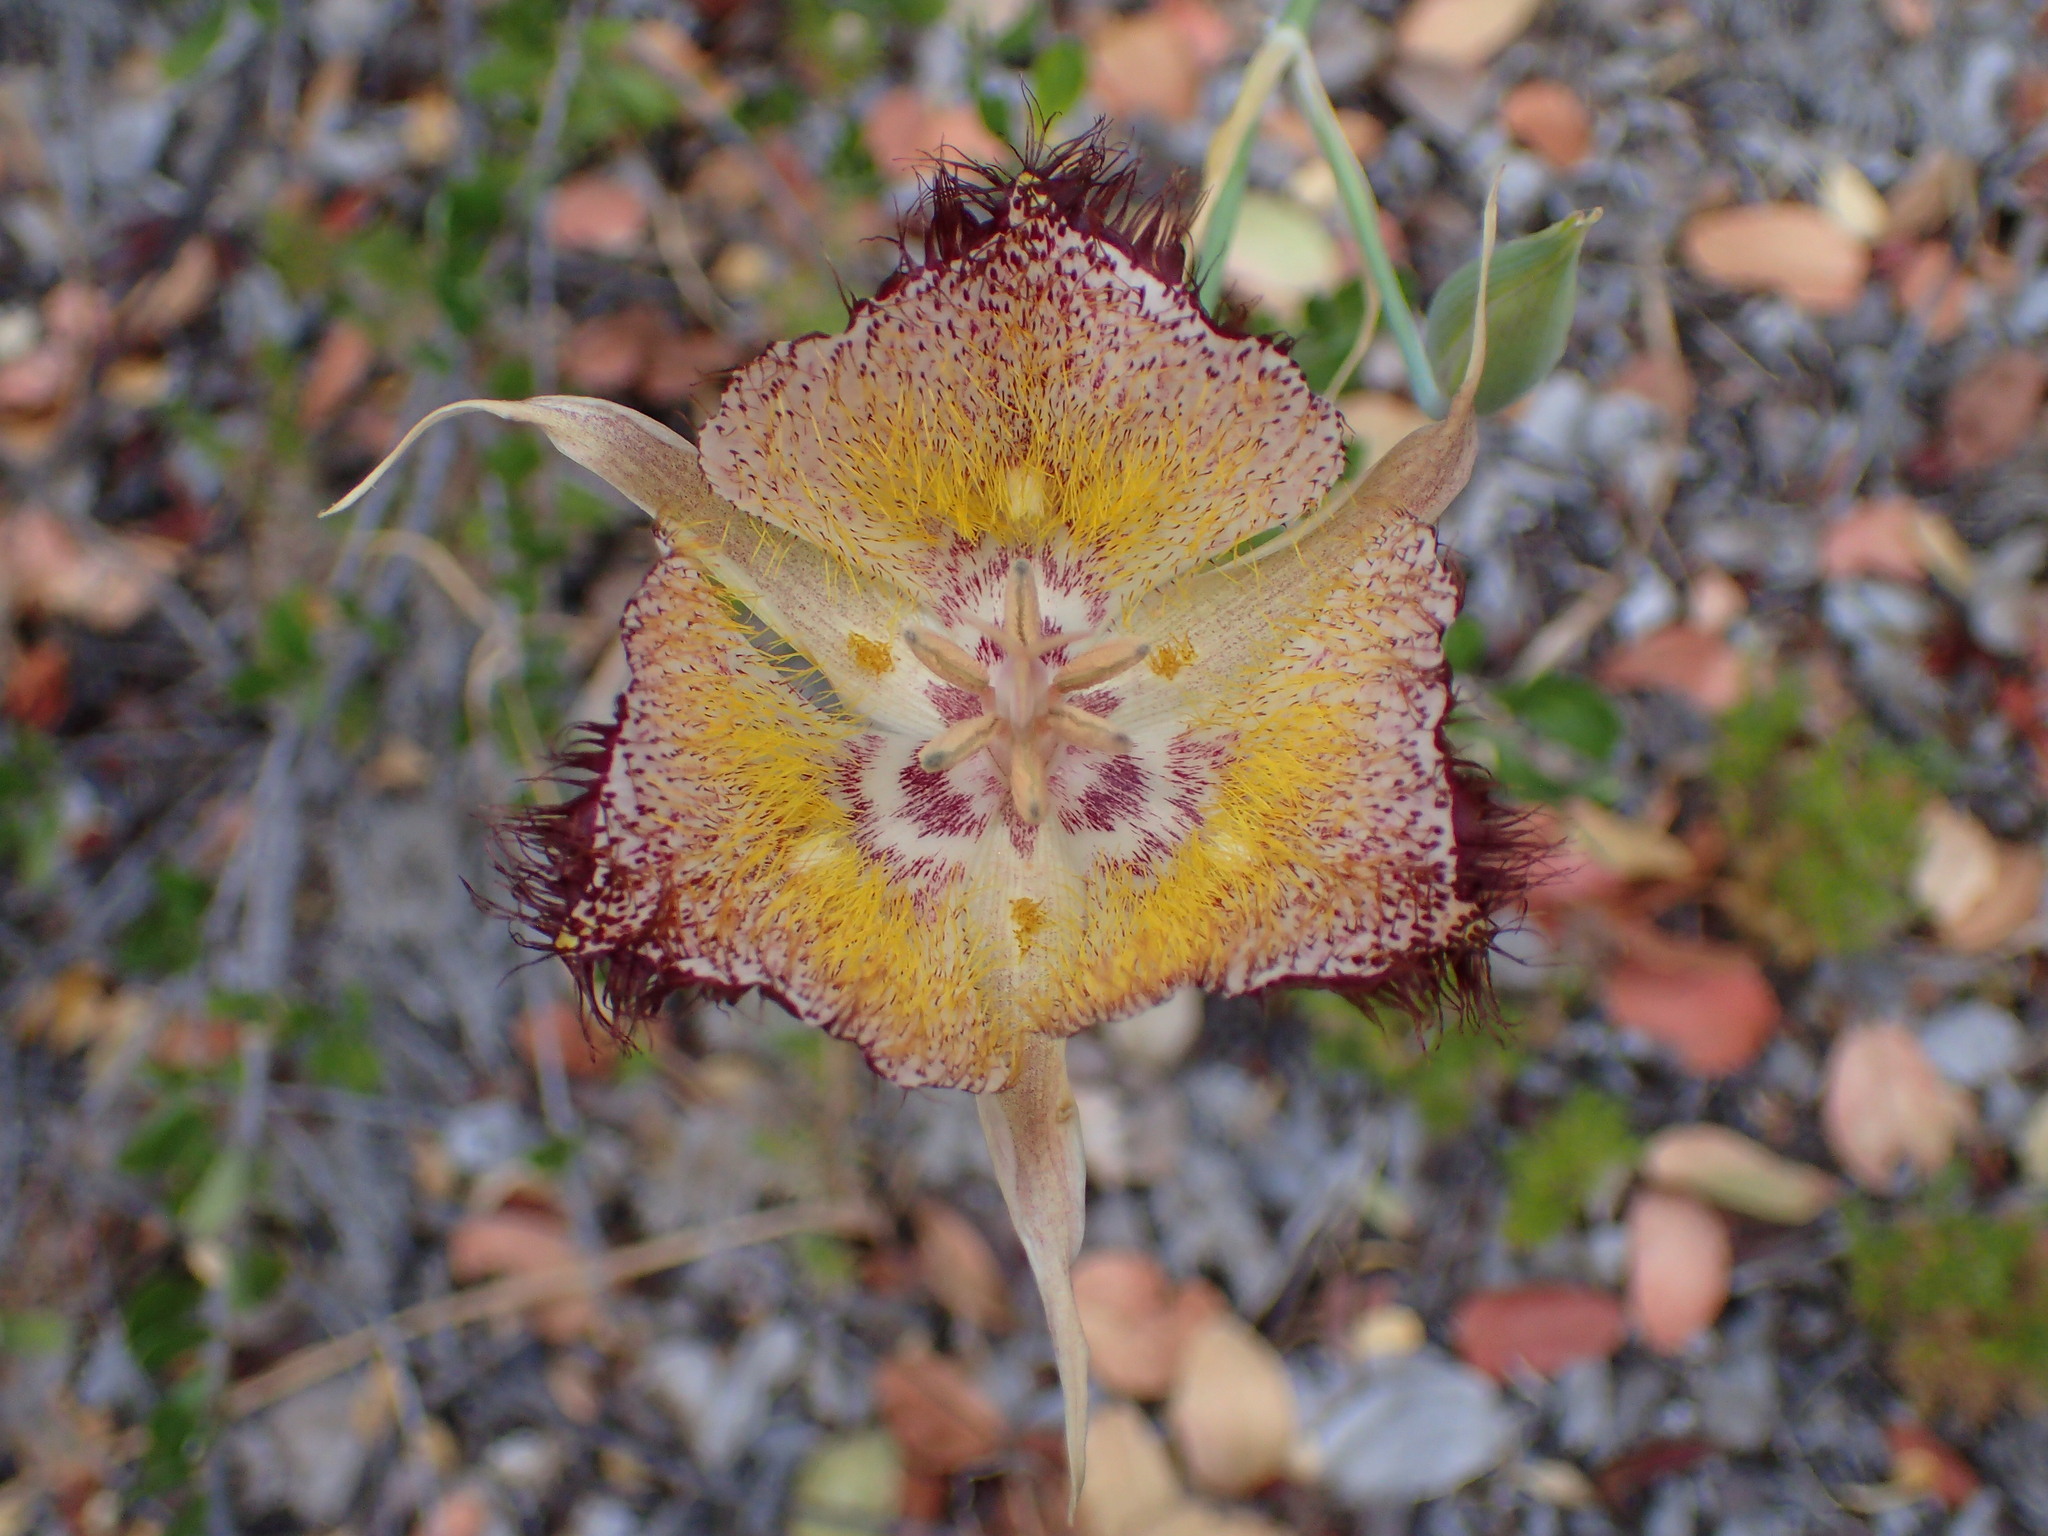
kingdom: Plantae
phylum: Tracheophyta
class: Liliopsida
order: Liliales
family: Liliaceae
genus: Calochortus
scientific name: Calochortus fimbriatus
